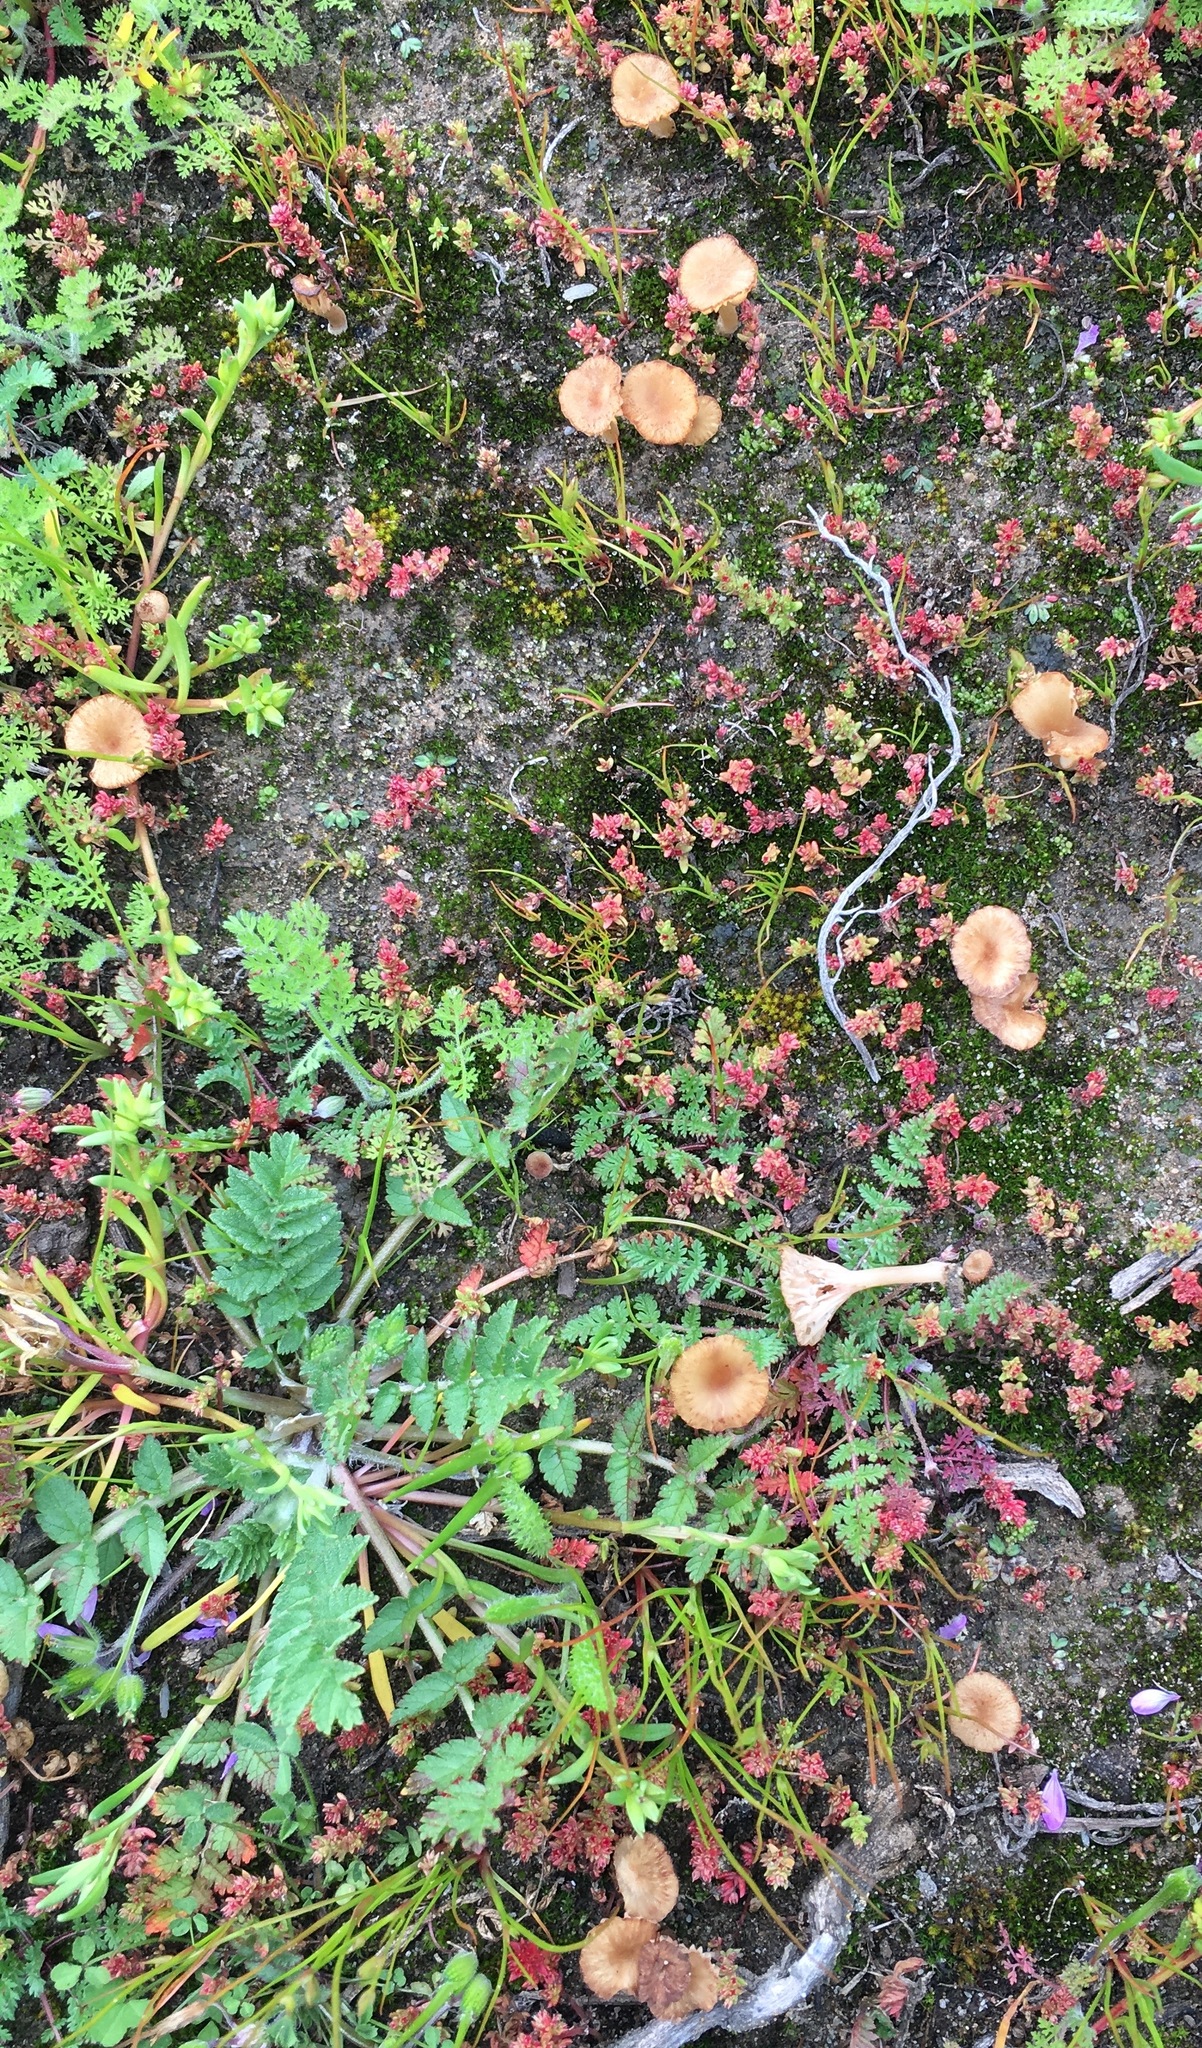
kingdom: Plantae
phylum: Tracheophyta
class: Magnoliopsida
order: Saxifragales
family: Crassulaceae
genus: Crassula
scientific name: Crassula connata
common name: Erect pygmyweed
